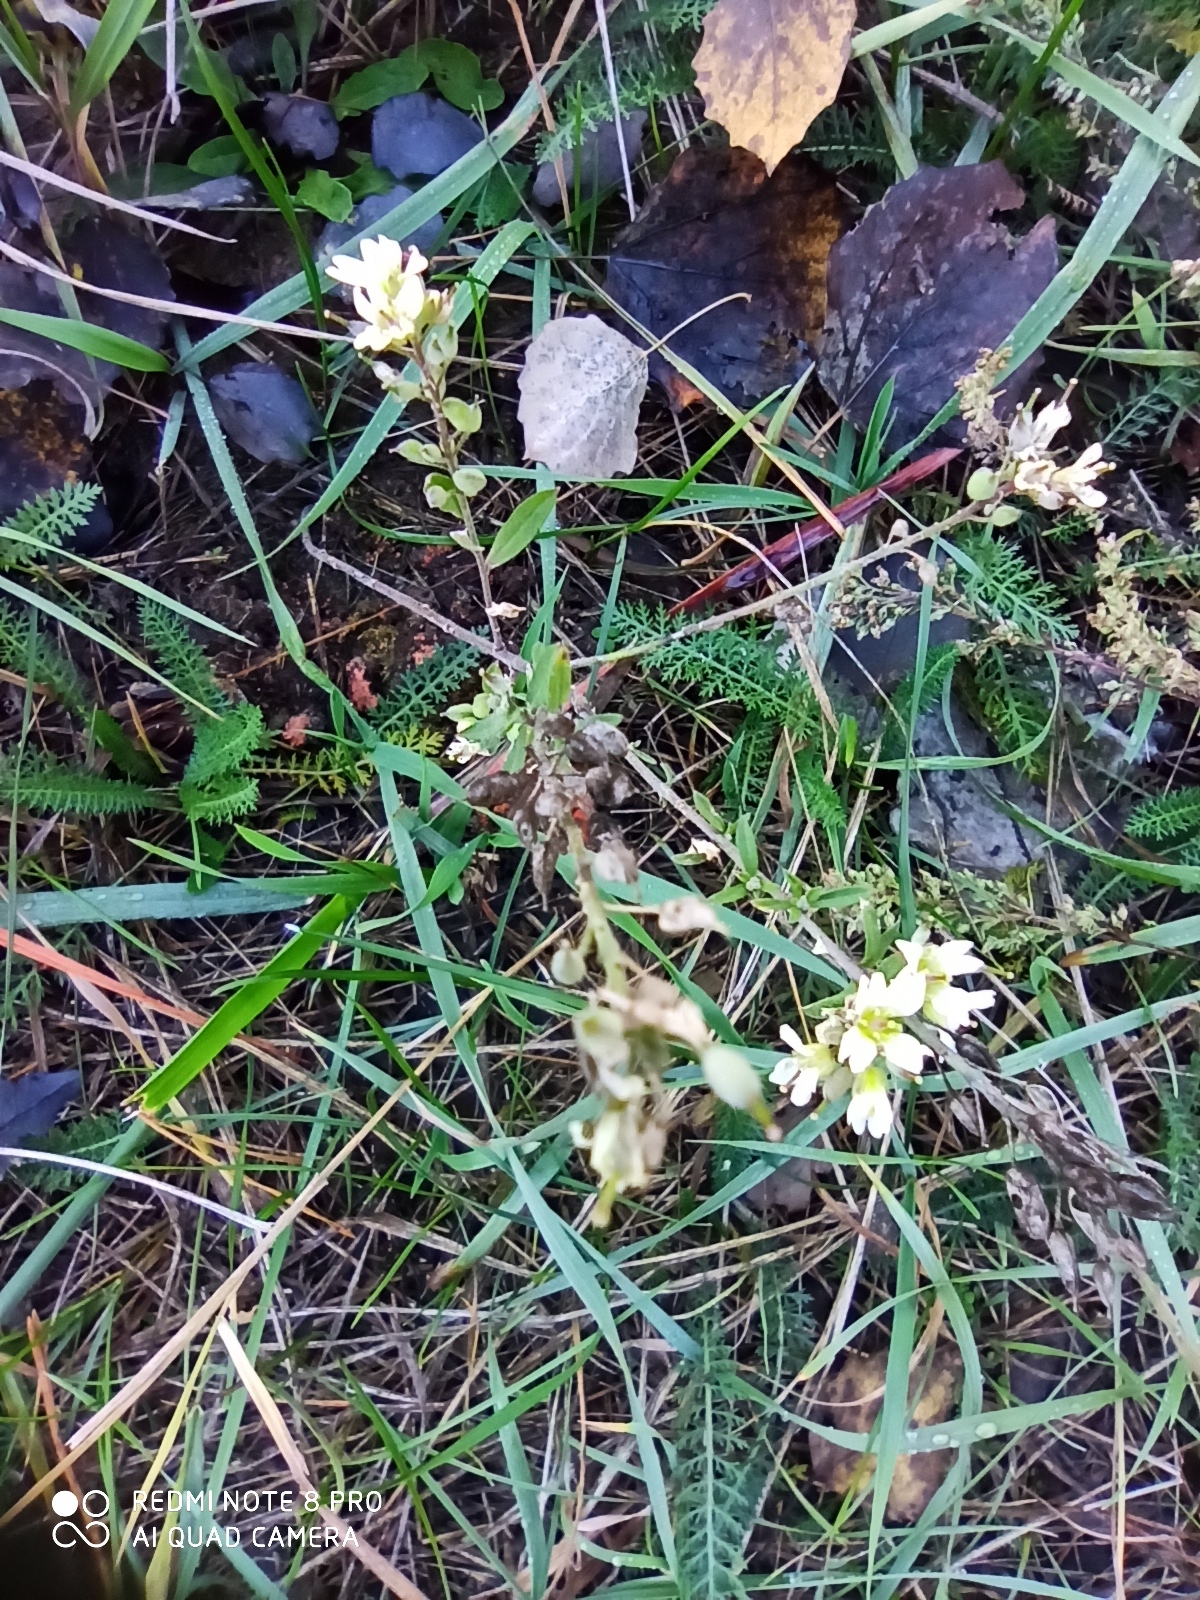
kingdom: Plantae
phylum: Tracheophyta
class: Magnoliopsida
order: Brassicales
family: Brassicaceae
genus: Berteroa
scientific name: Berteroa incana
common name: Hoary alison
